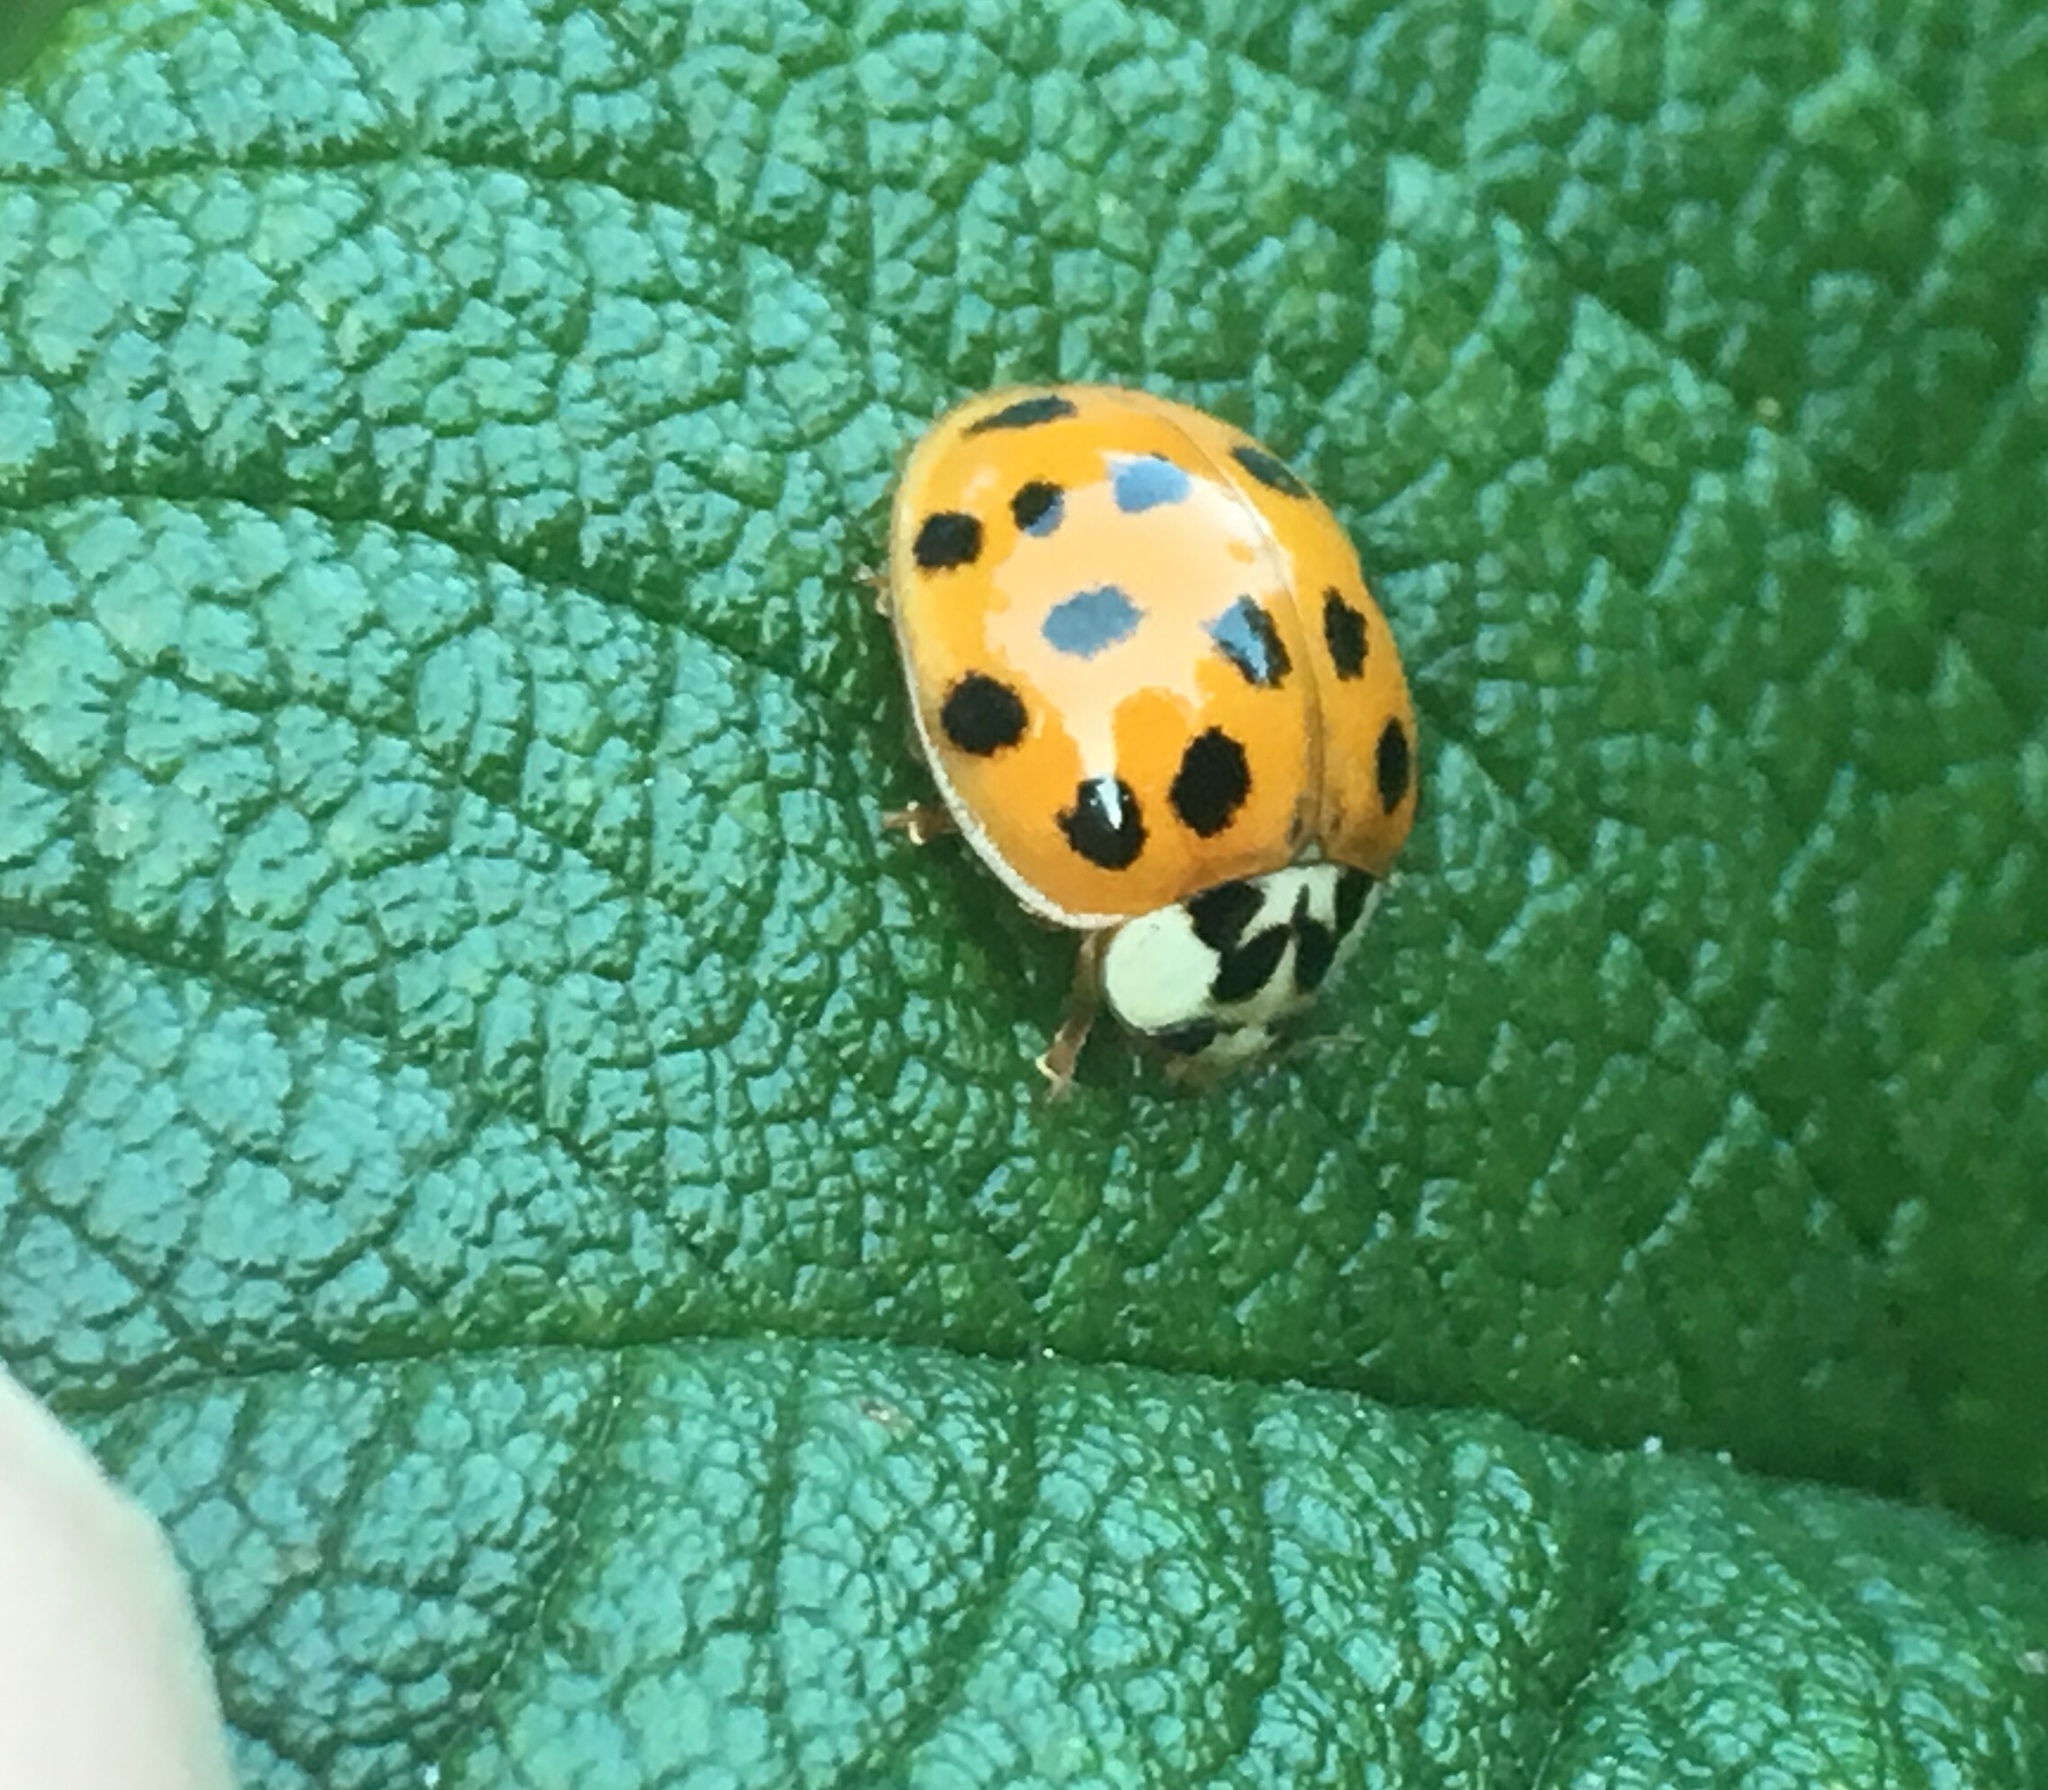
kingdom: Animalia
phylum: Arthropoda
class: Insecta
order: Coleoptera
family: Coccinellidae
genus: Harmonia
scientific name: Harmonia axyridis
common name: Harlequin ladybird
